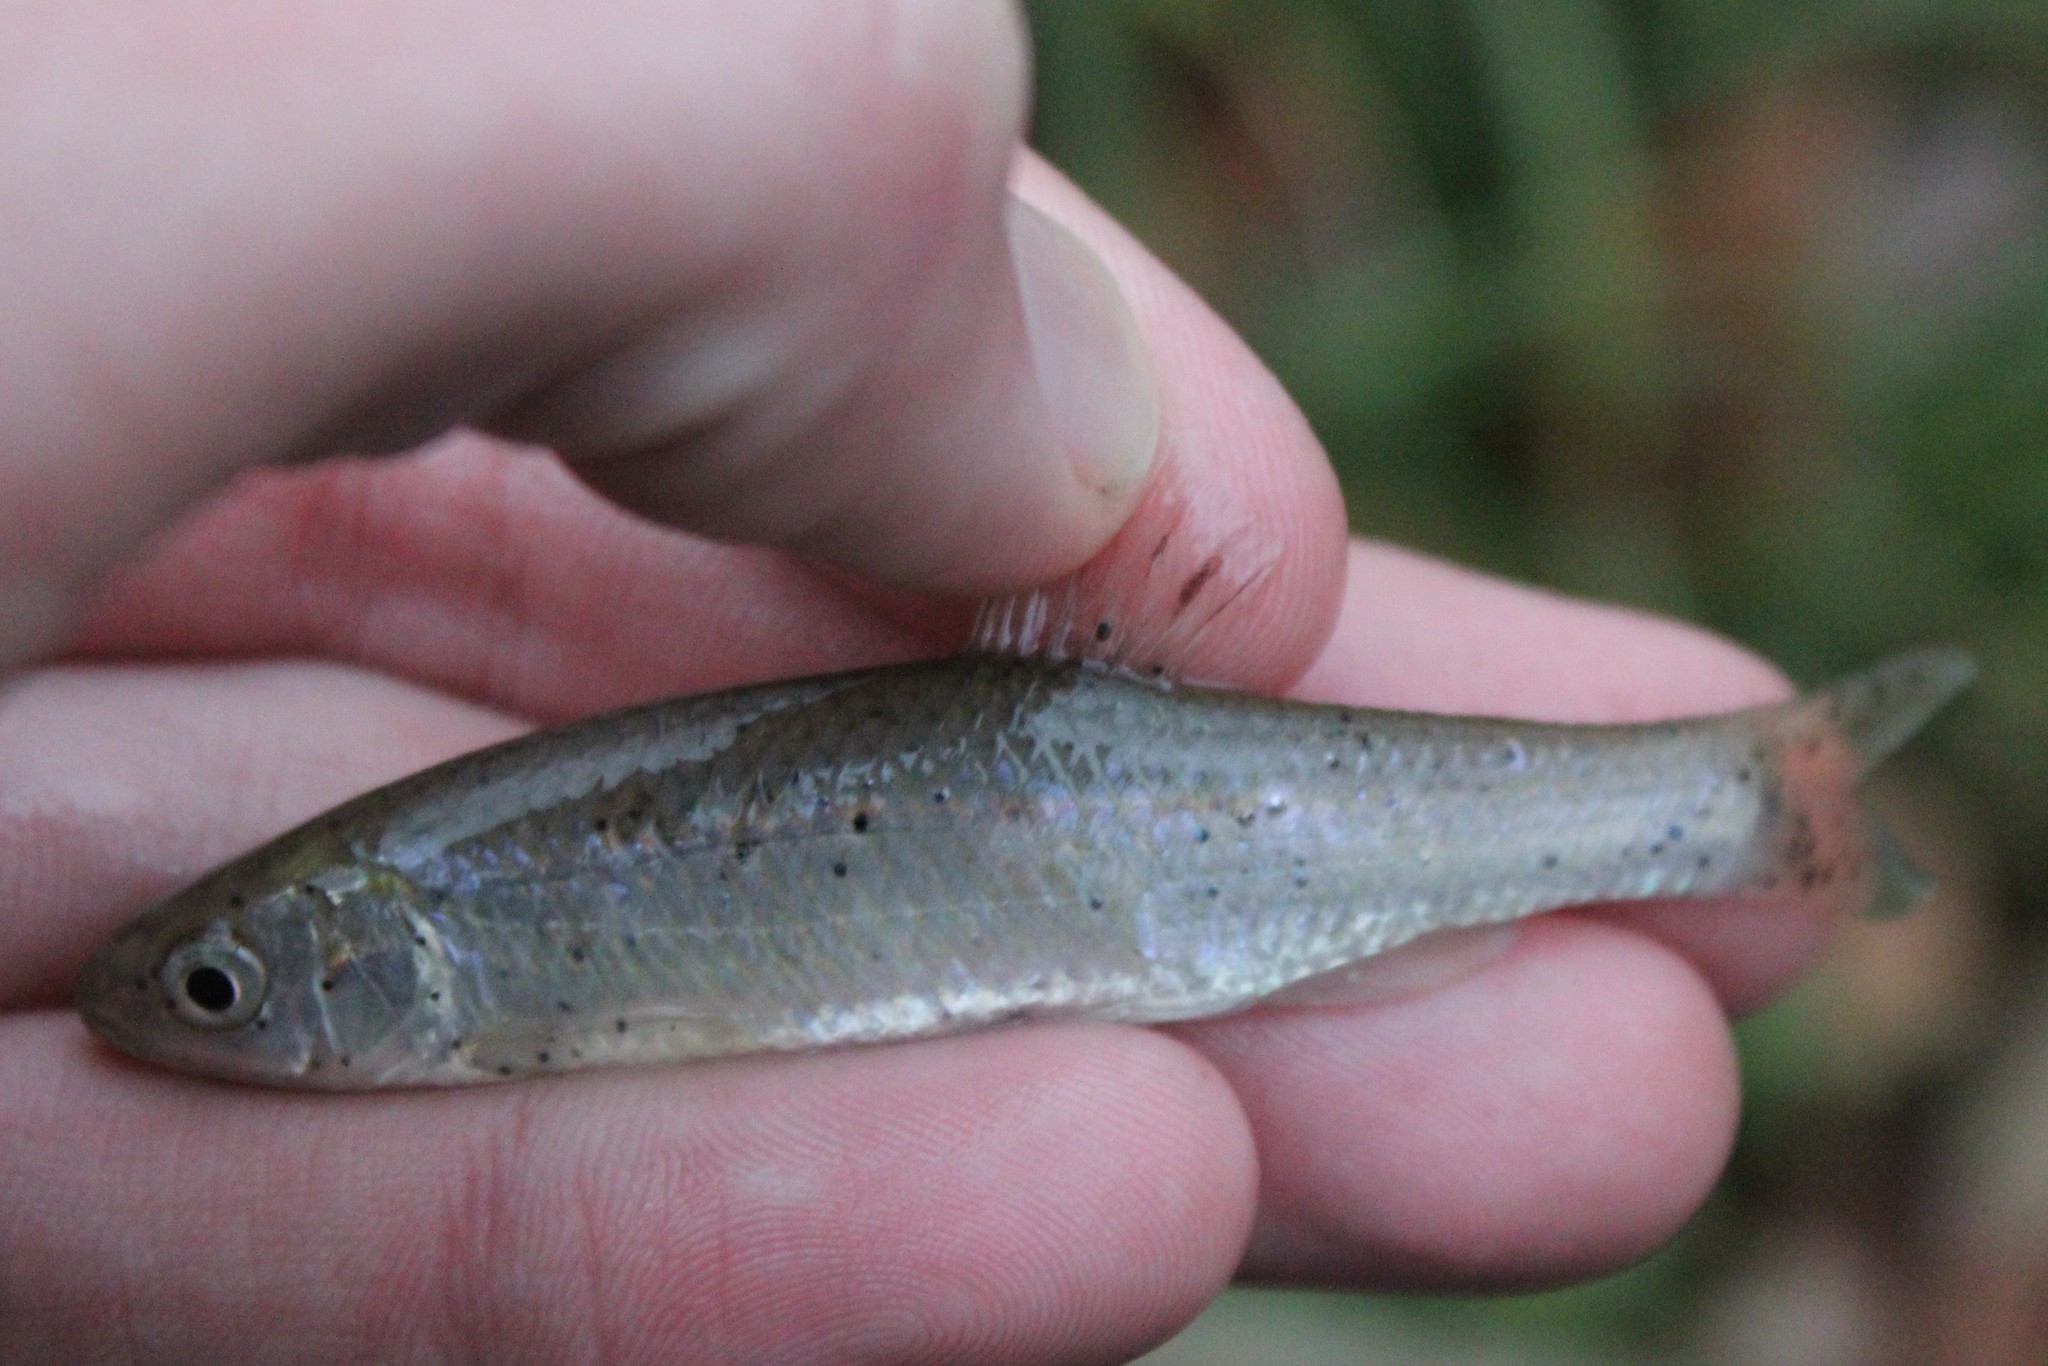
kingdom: Animalia
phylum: Chordata
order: Cypriniformes
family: Cyprinidae
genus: Cyprinella
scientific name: Cyprinella spiloptera
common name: Spotfin shiner
